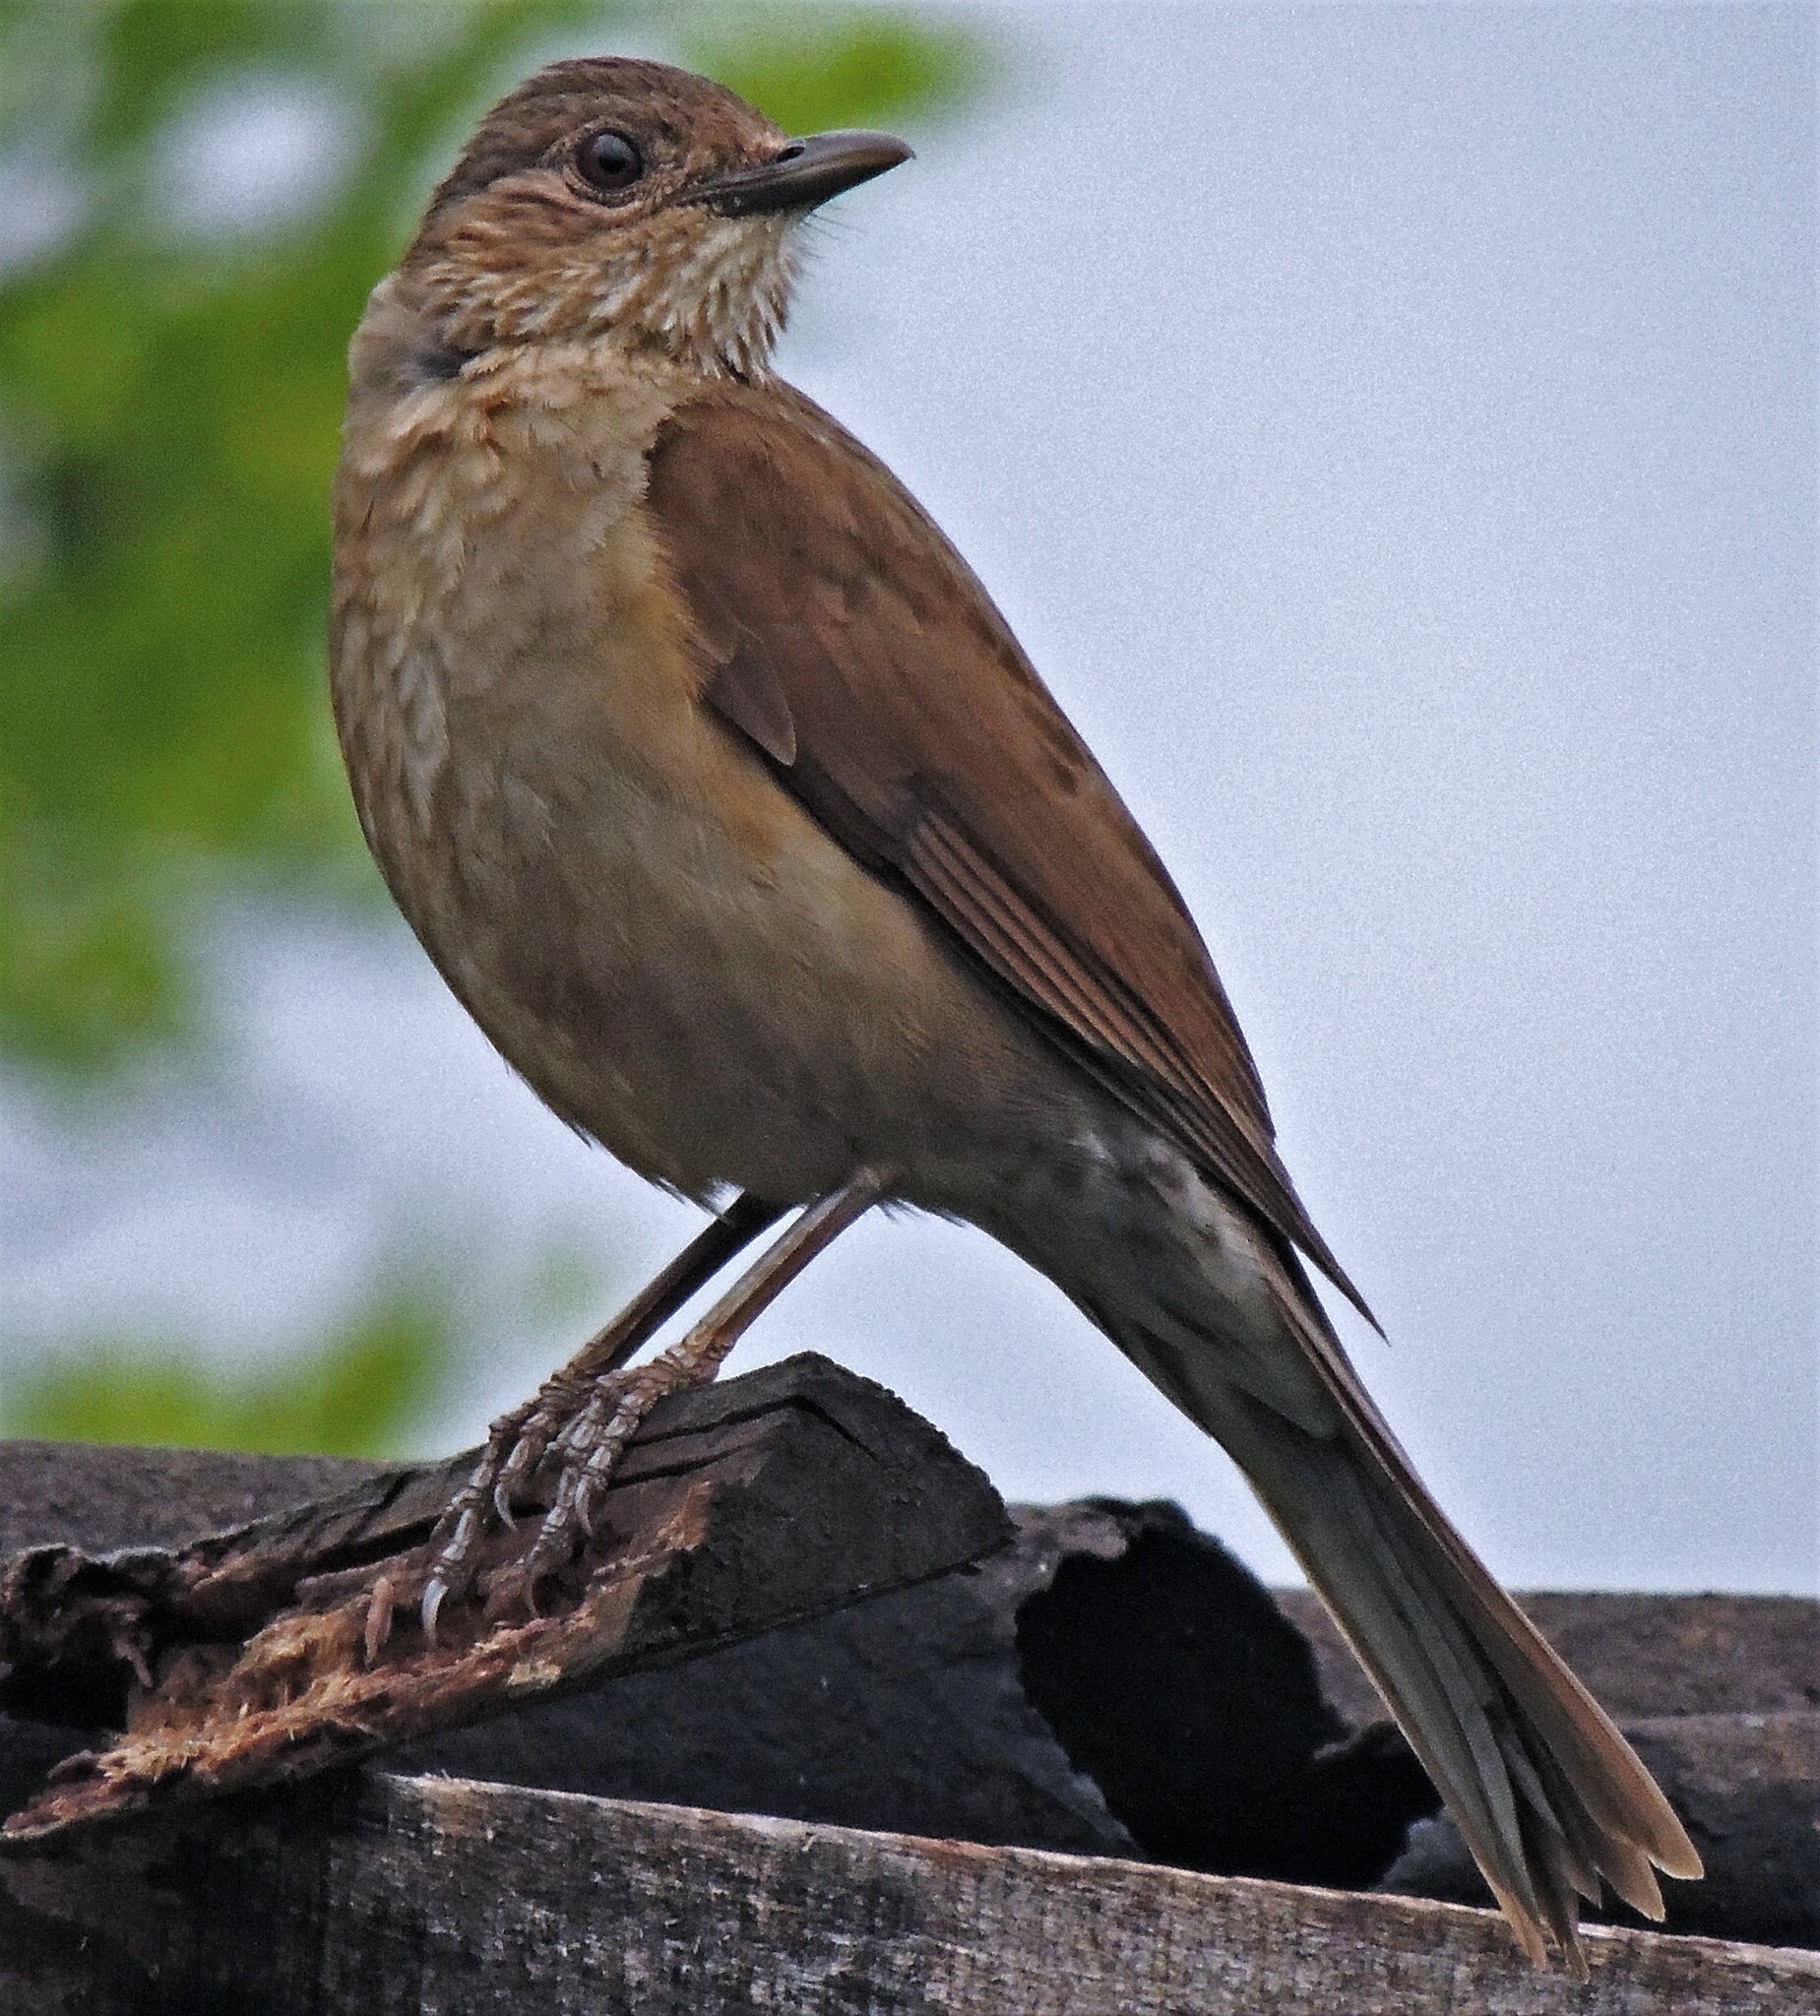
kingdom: Animalia
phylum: Chordata
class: Aves
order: Passeriformes
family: Turdidae
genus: Turdus
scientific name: Turdus leucomelas
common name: Pale-breasted thrush
